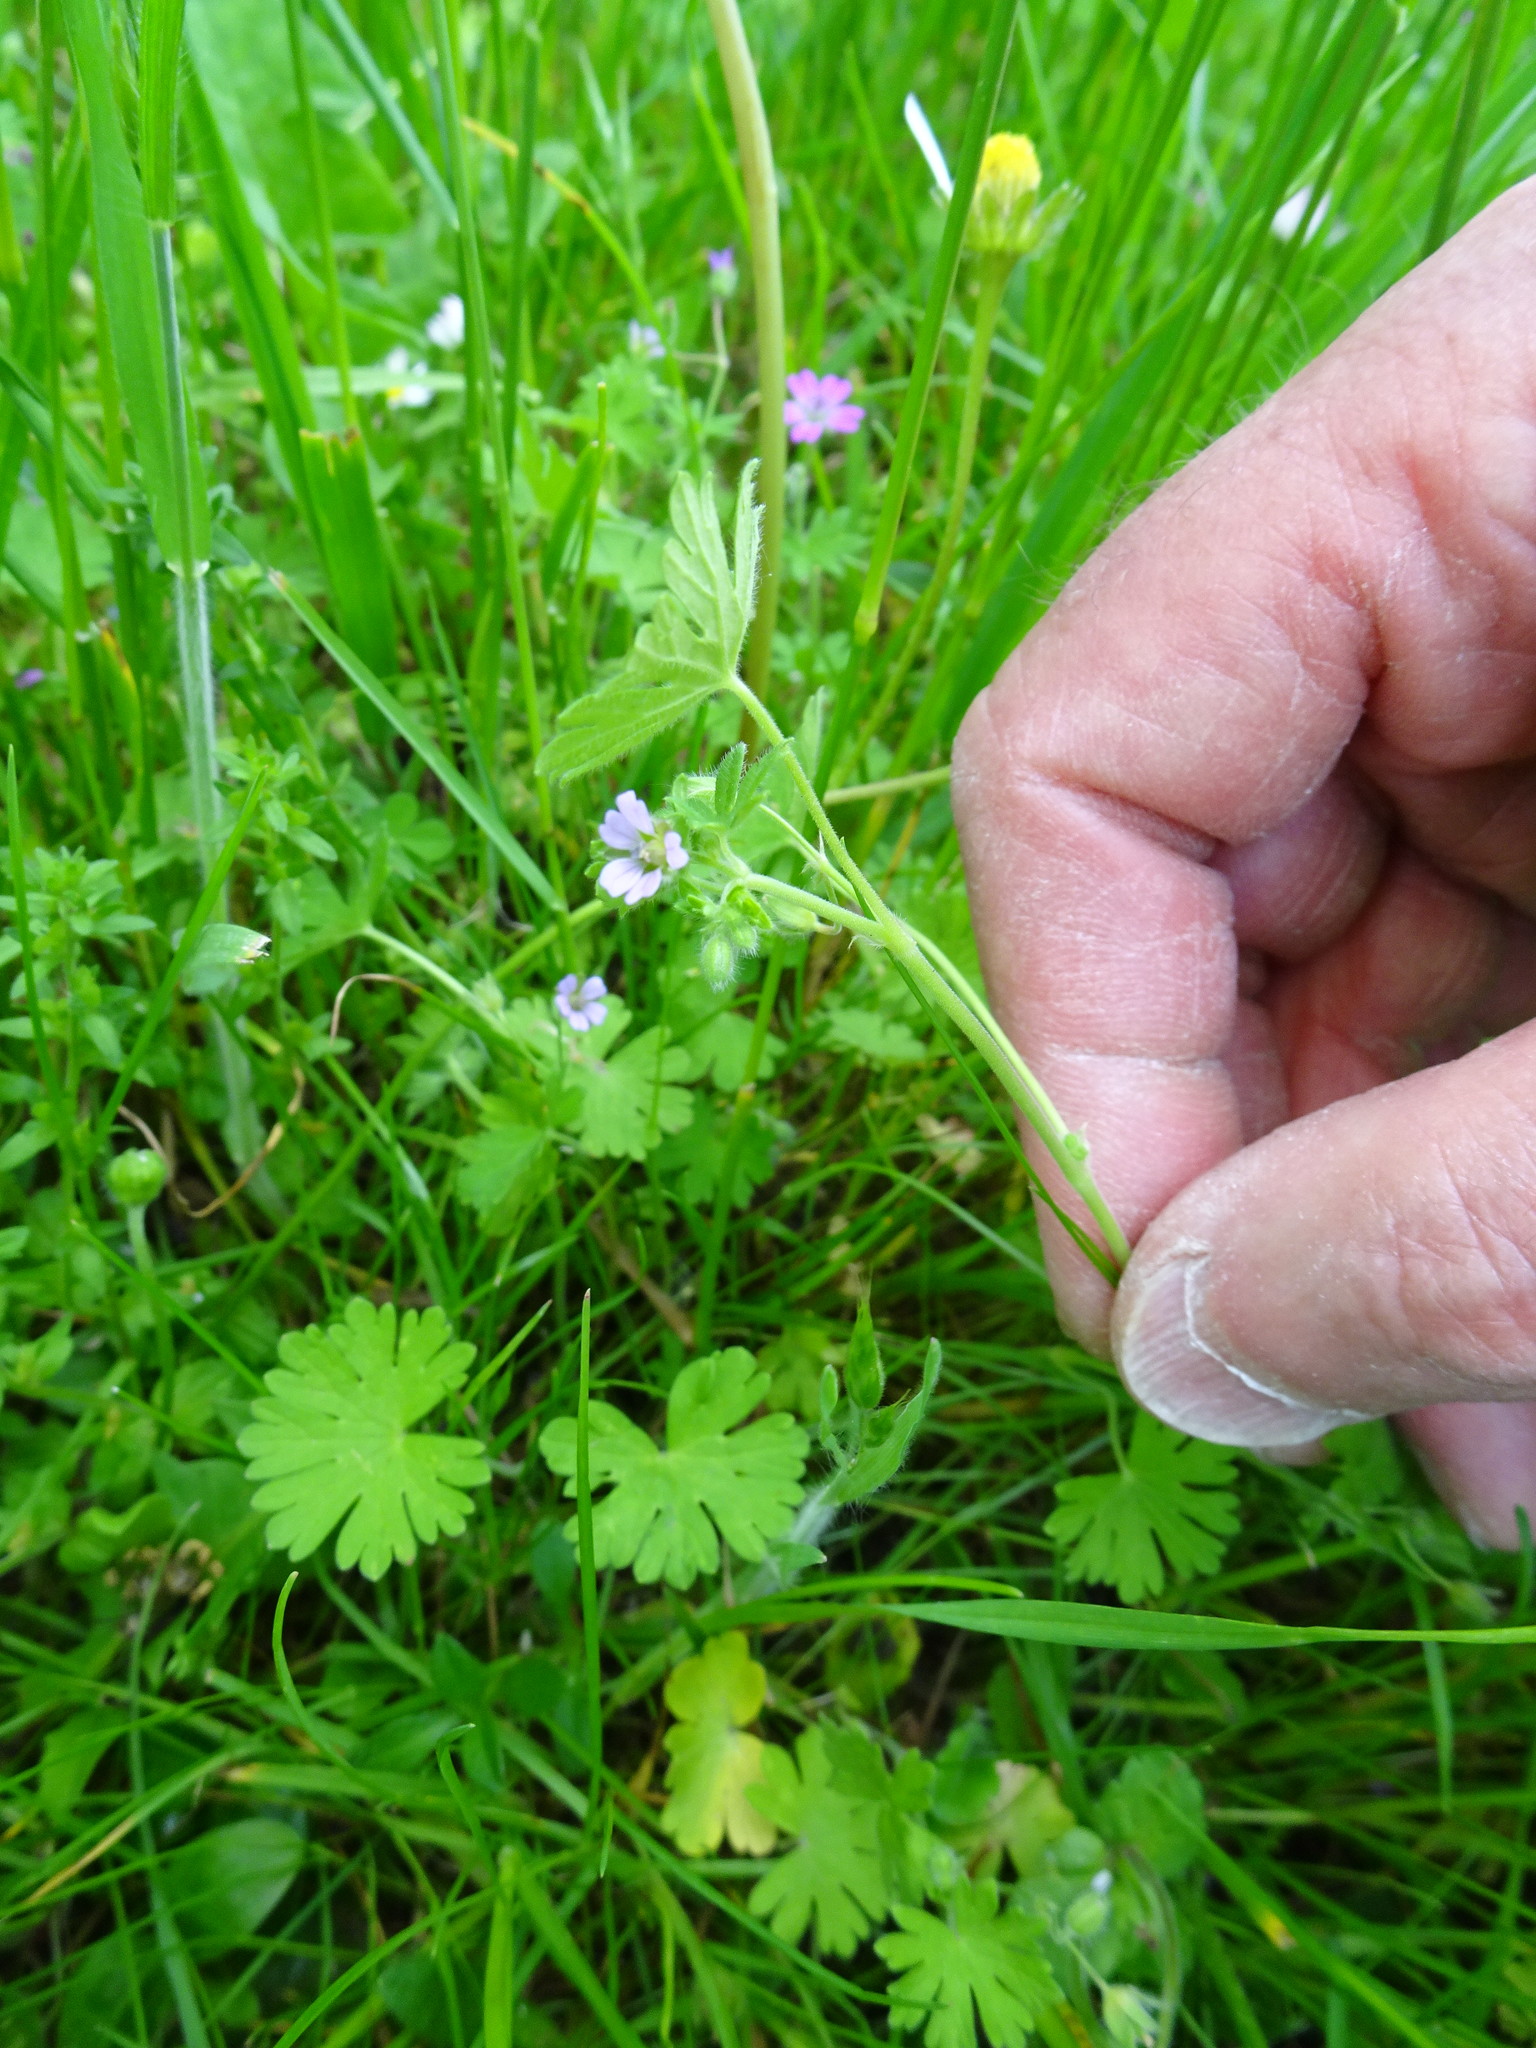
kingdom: Plantae
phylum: Tracheophyta
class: Magnoliopsida
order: Geraniales
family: Geraniaceae
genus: Geranium
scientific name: Geranium pusillum
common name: Small geranium
